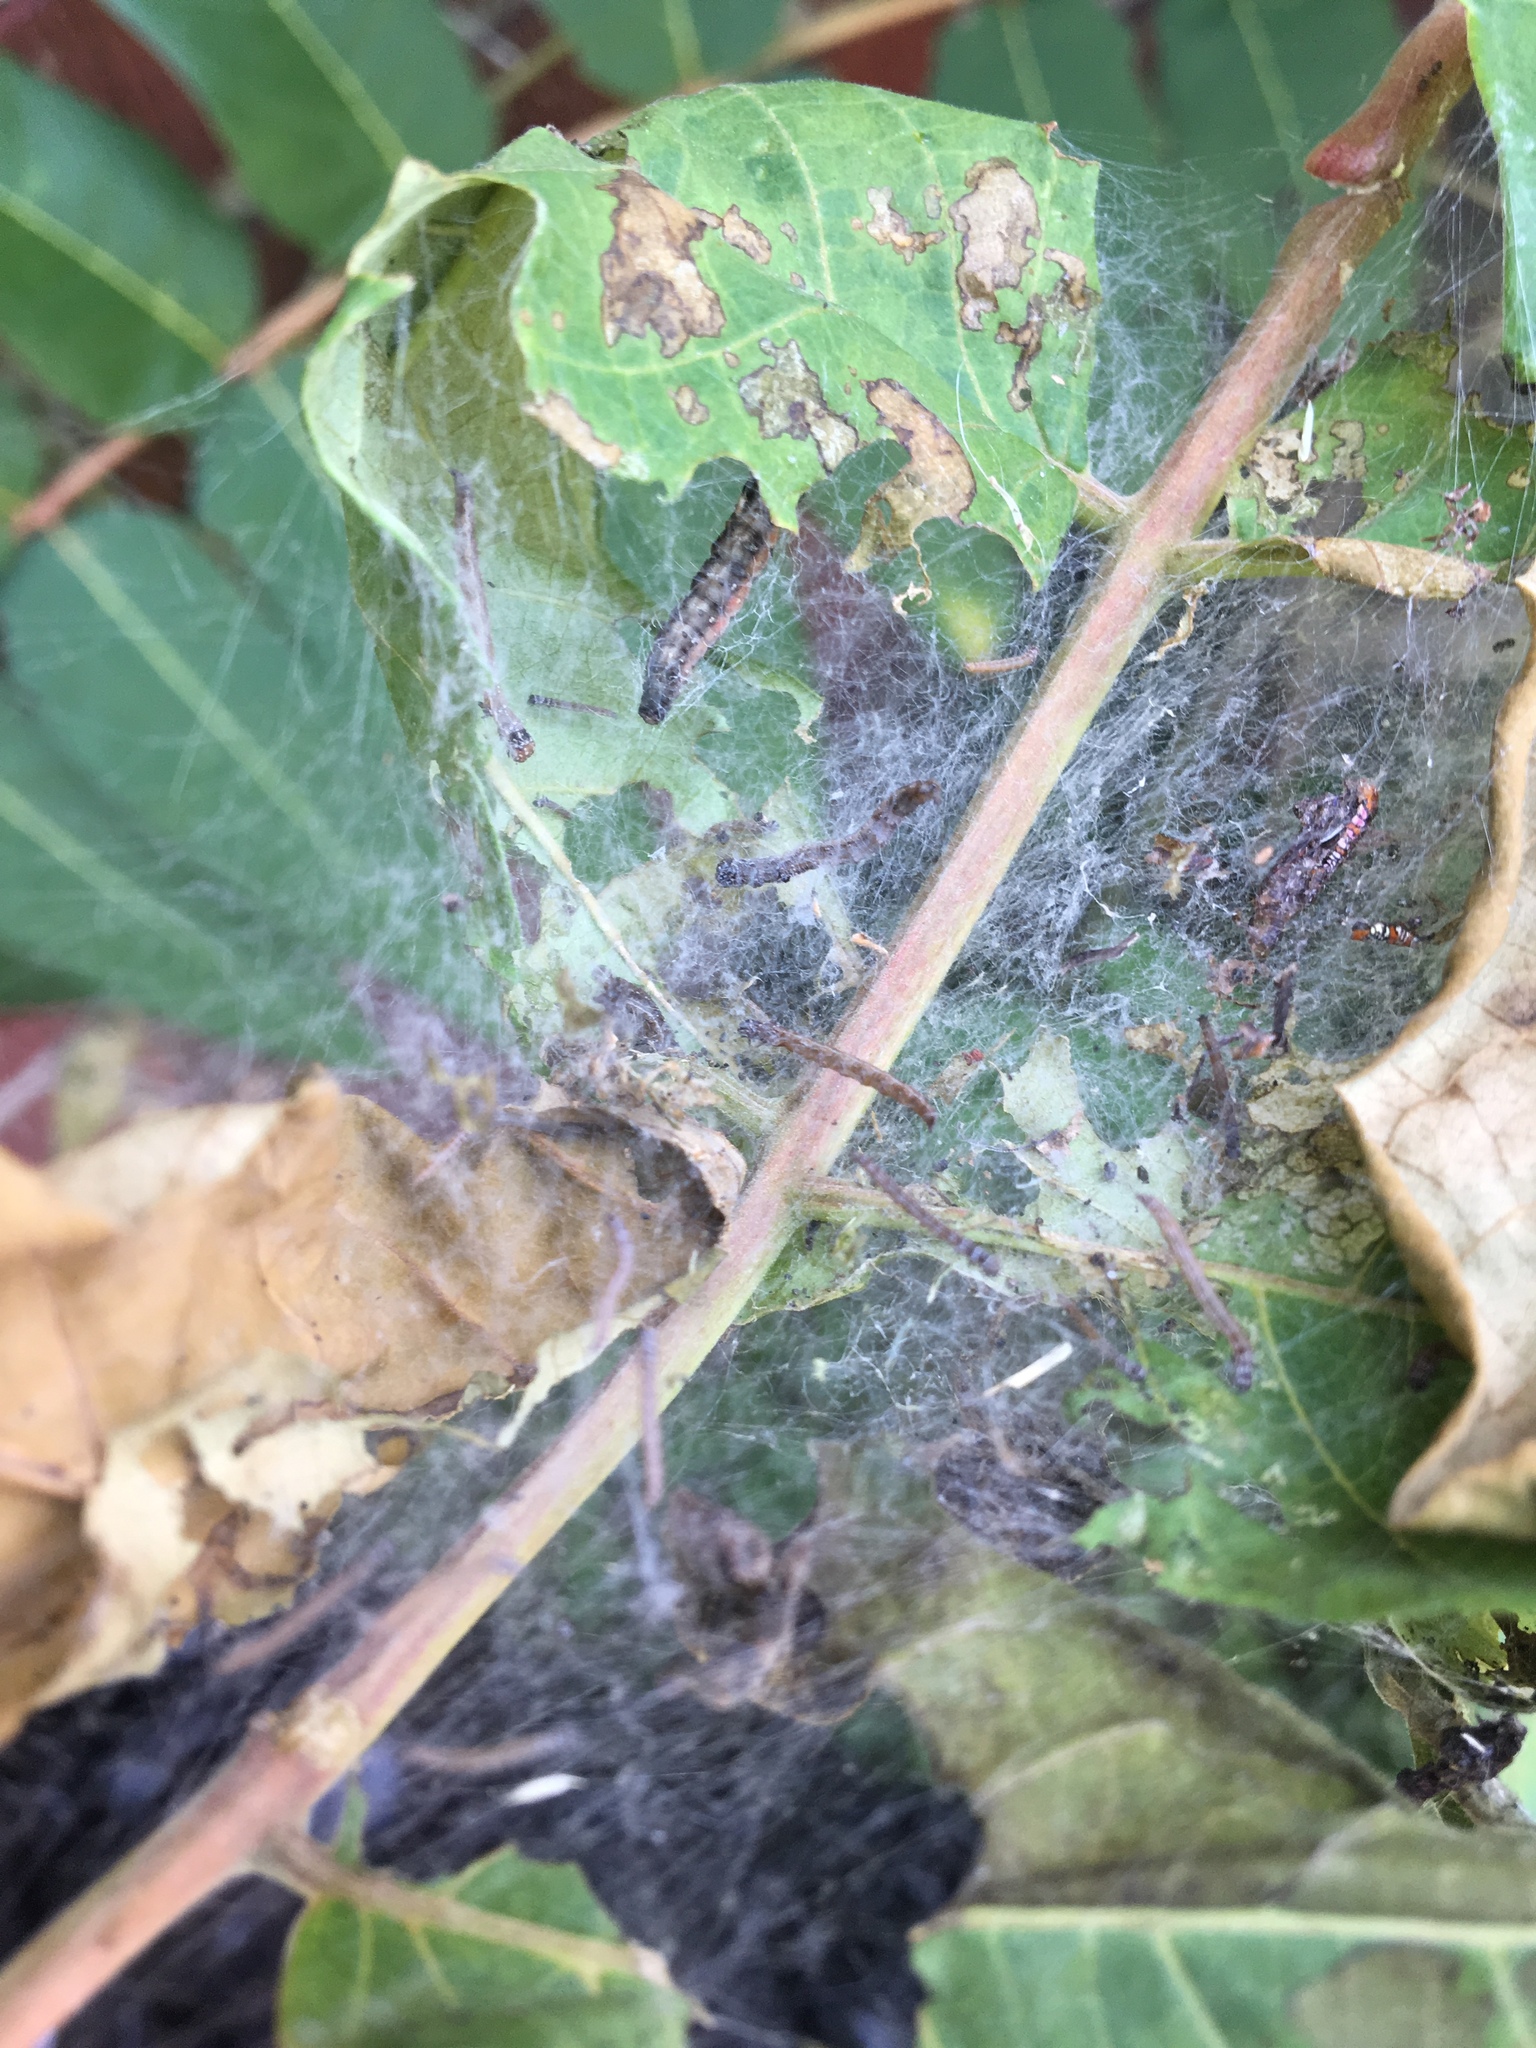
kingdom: Animalia
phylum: Arthropoda
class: Insecta
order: Lepidoptera
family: Attevidae
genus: Atteva
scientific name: Atteva punctella
